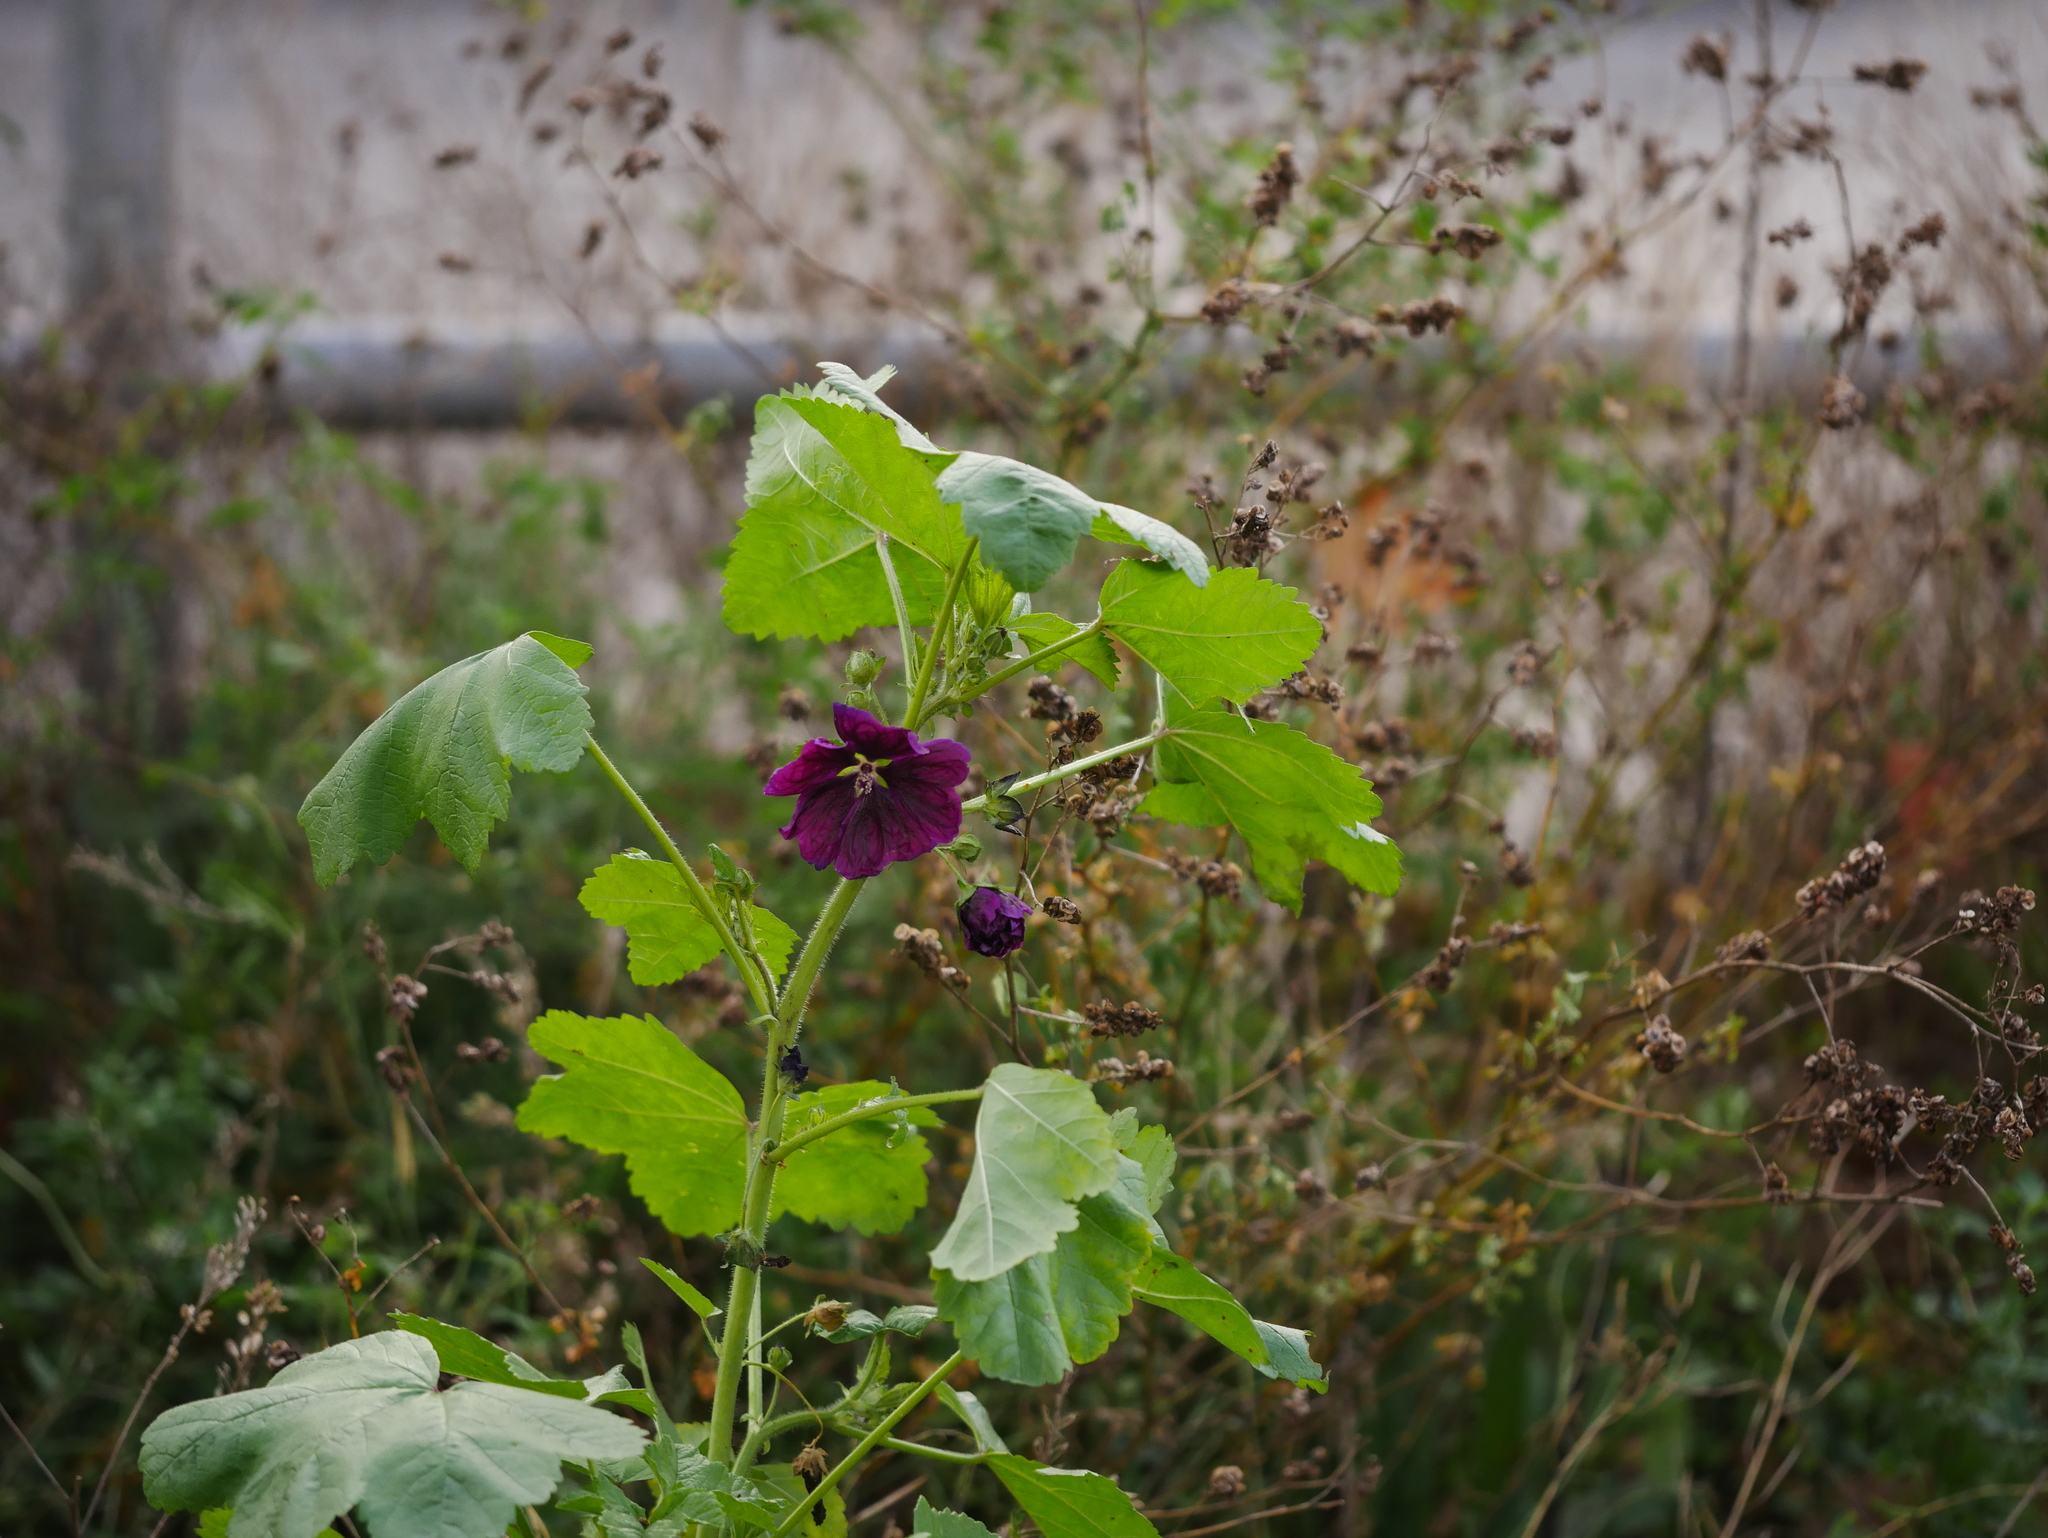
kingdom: Plantae
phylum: Tracheophyta
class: Magnoliopsida
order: Malvales
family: Malvaceae
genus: Malva
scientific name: Malva sylvestris
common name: Common mallow
